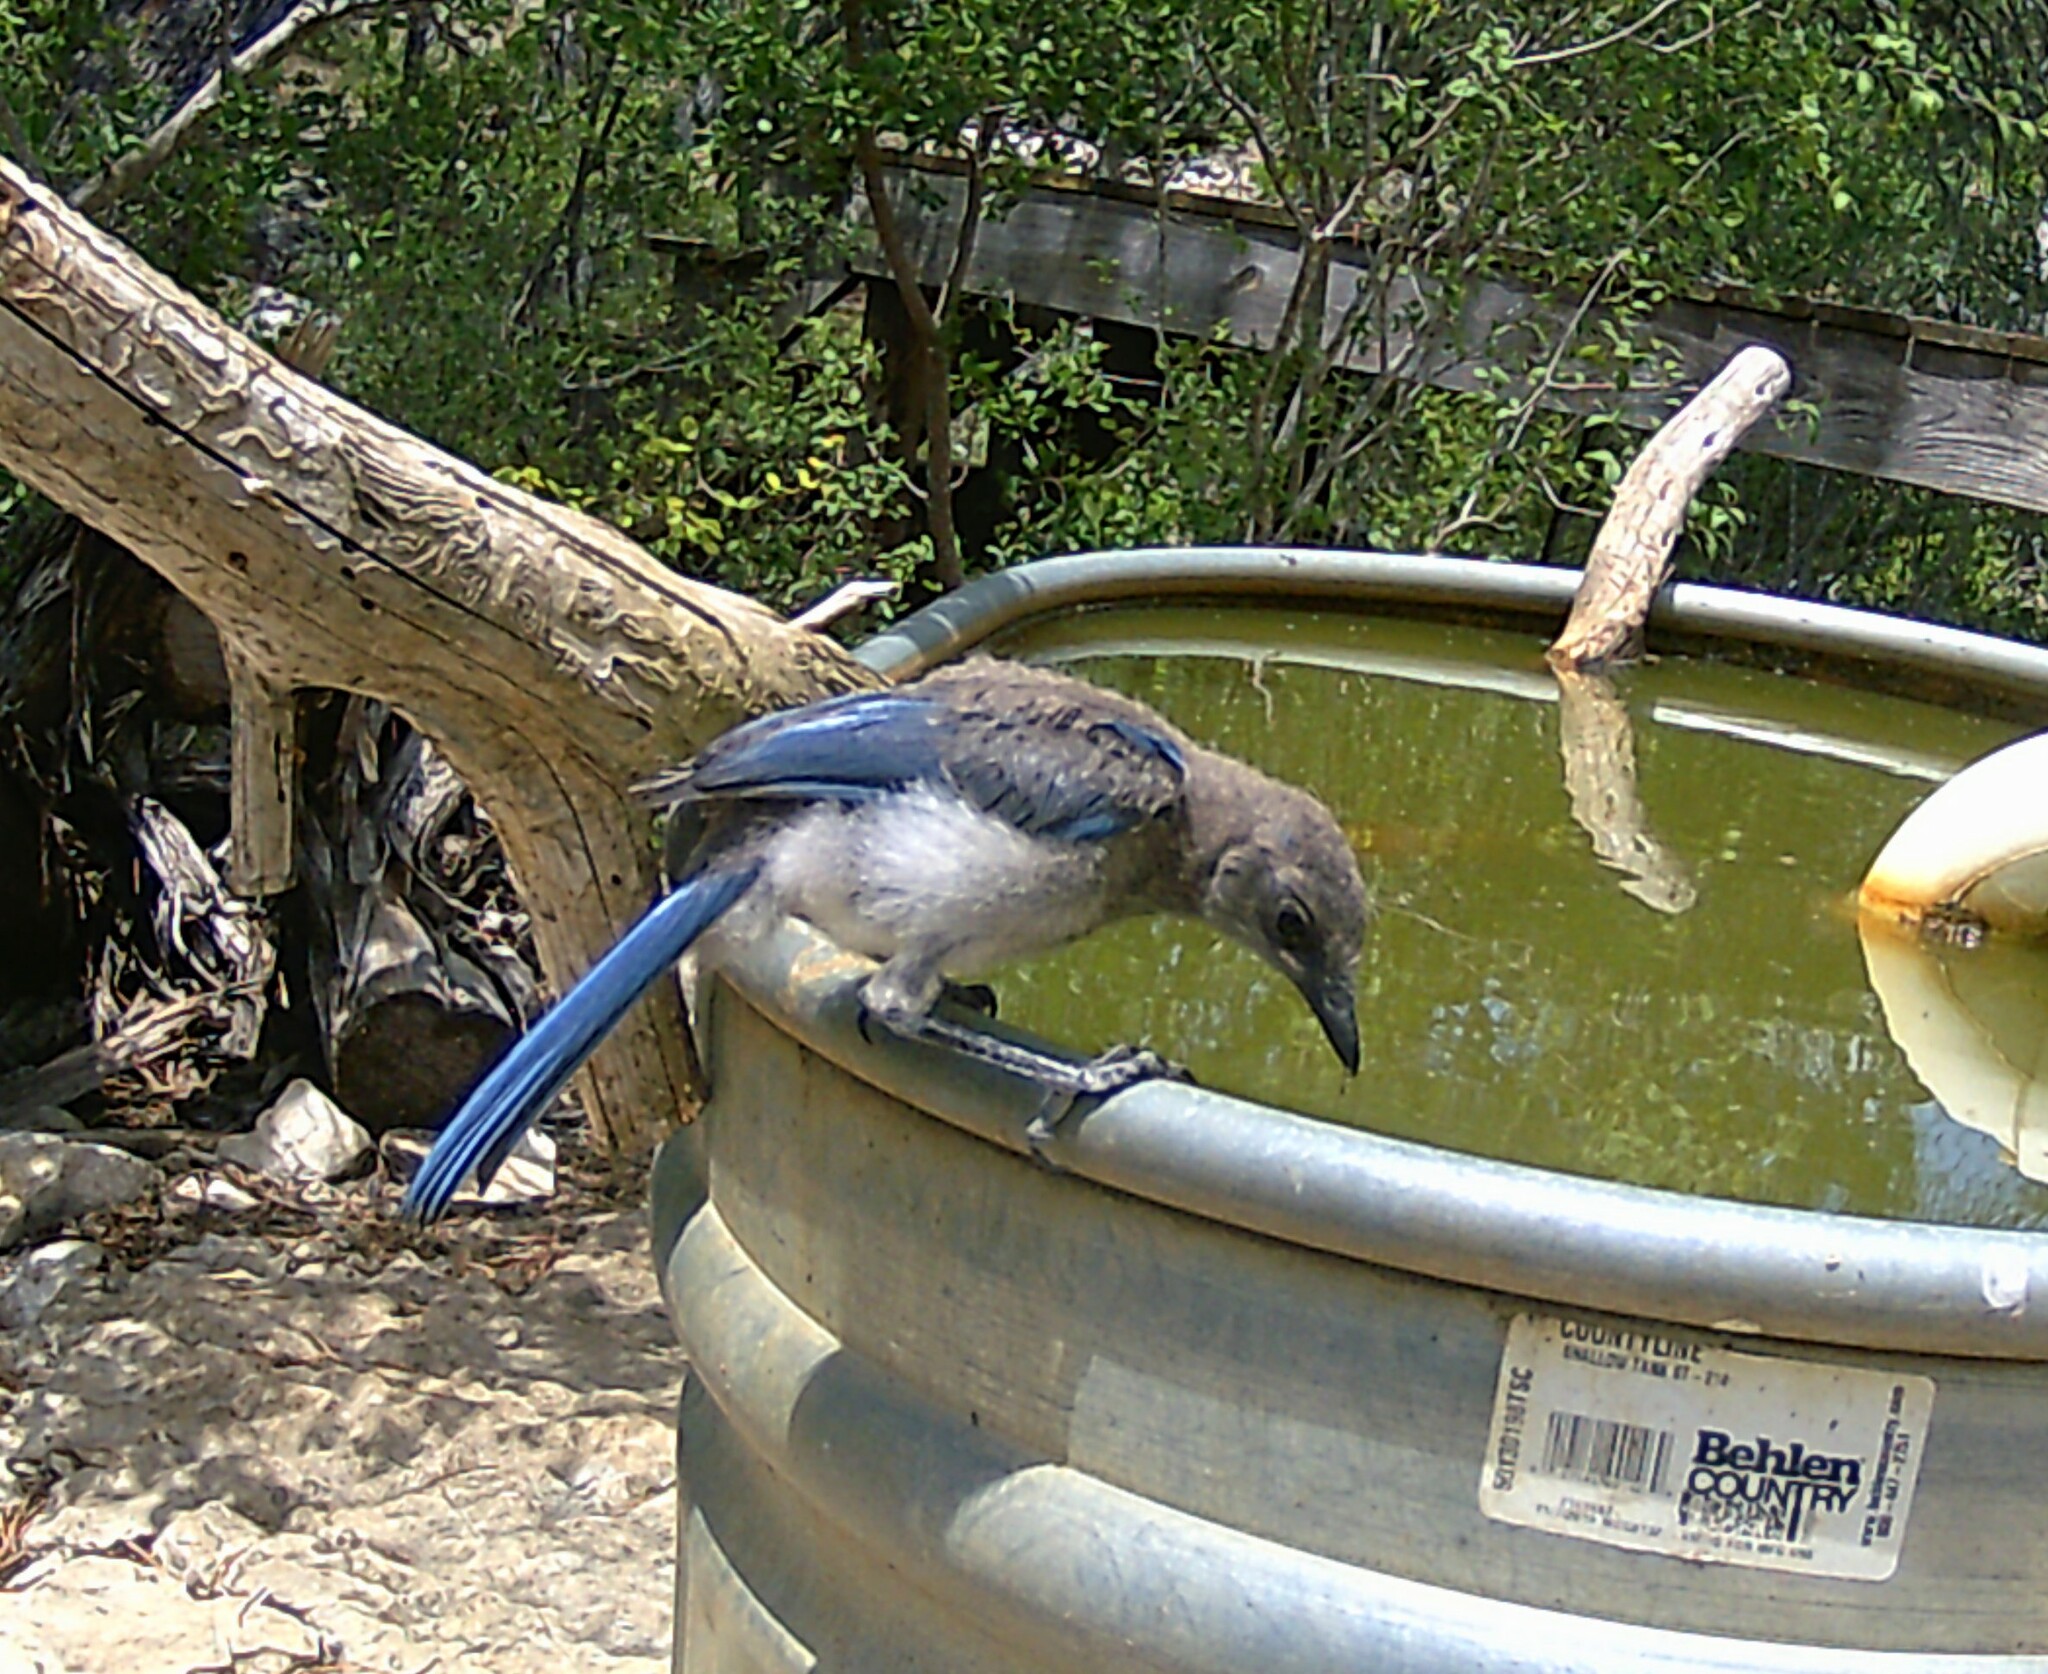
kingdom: Animalia
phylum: Chordata
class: Aves
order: Passeriformes
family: Corvidae
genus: Aphelocoma
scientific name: Aphelocoma woodhouseii
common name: Woodhouse's scrub-jay
